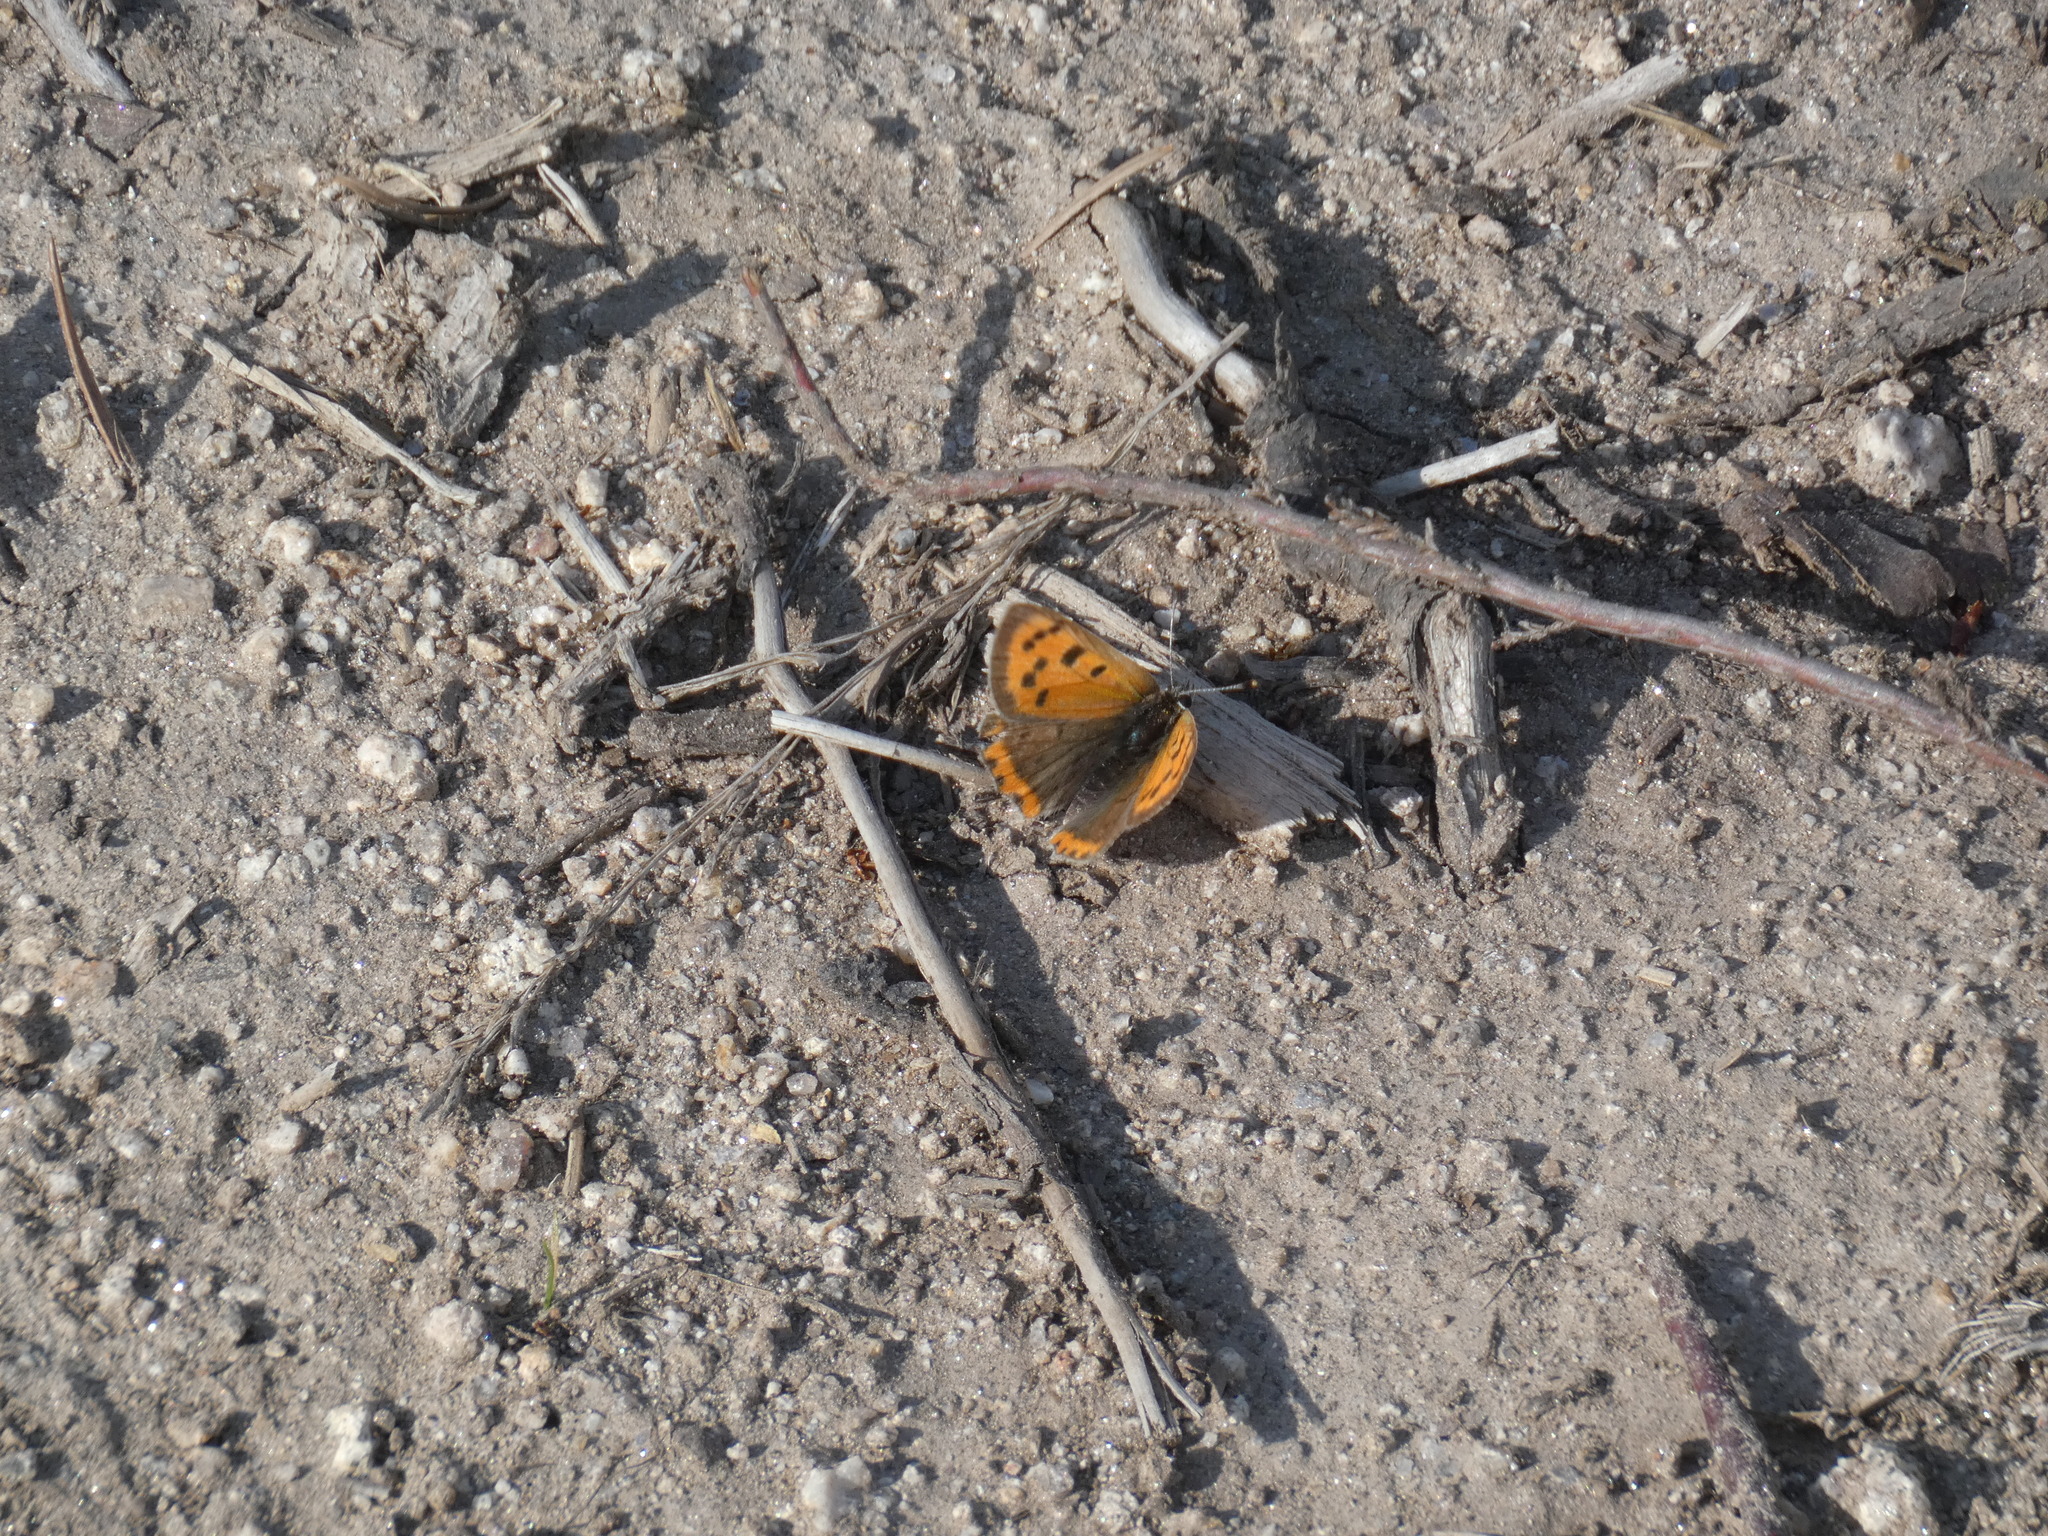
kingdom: Animalia
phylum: Arthropoda
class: Insecta
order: Lepidoptera
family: Lycaenidae
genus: Lycaena
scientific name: Lycaena phlaeas
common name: Small copper
